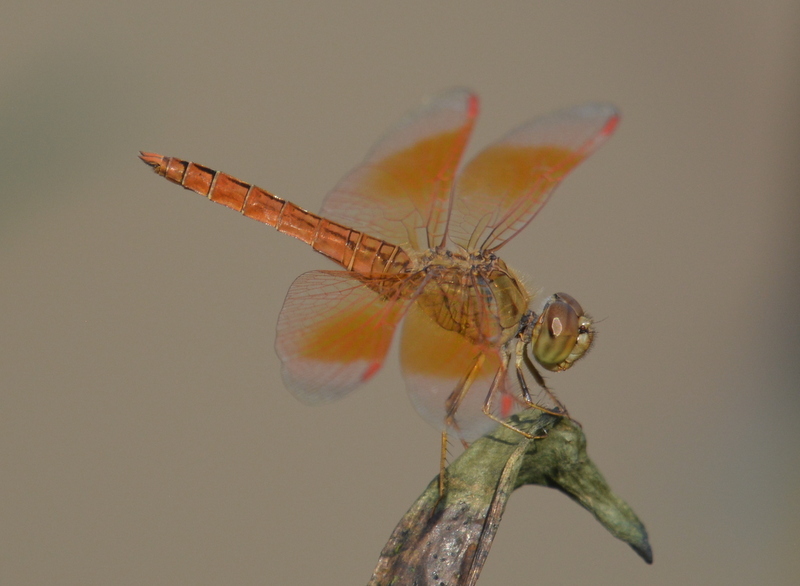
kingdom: Animalia
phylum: Arthropoda
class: Insecta
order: Odonata
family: Libellulidae
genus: Brachythemis
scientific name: Brachythemis contaminata
